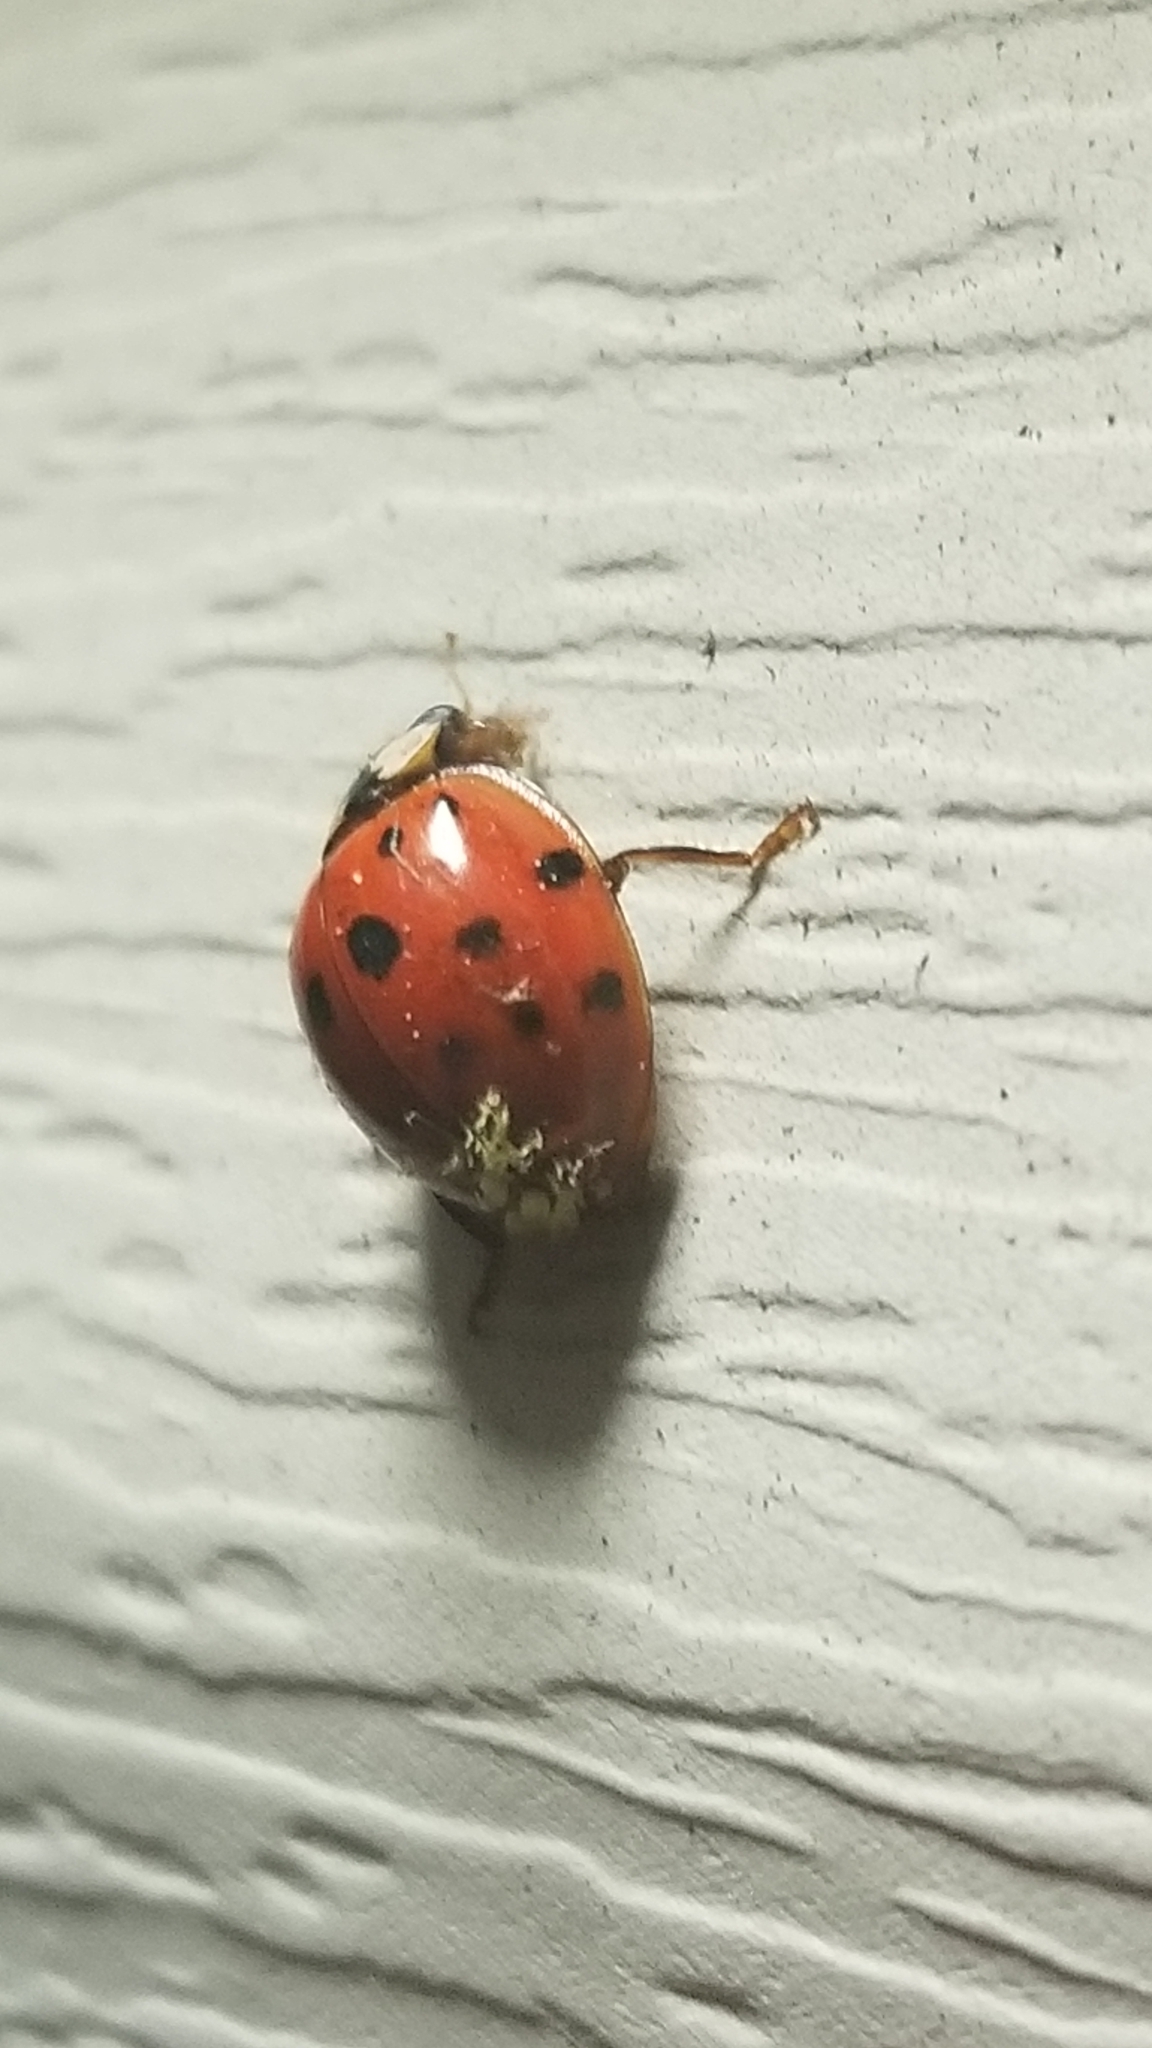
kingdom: Animalia
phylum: Arthropoda
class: Insecta
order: Coleoptera
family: Coccinellidae
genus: Harmonia
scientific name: Harmonia axyridis
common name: Harlequin ladybird
